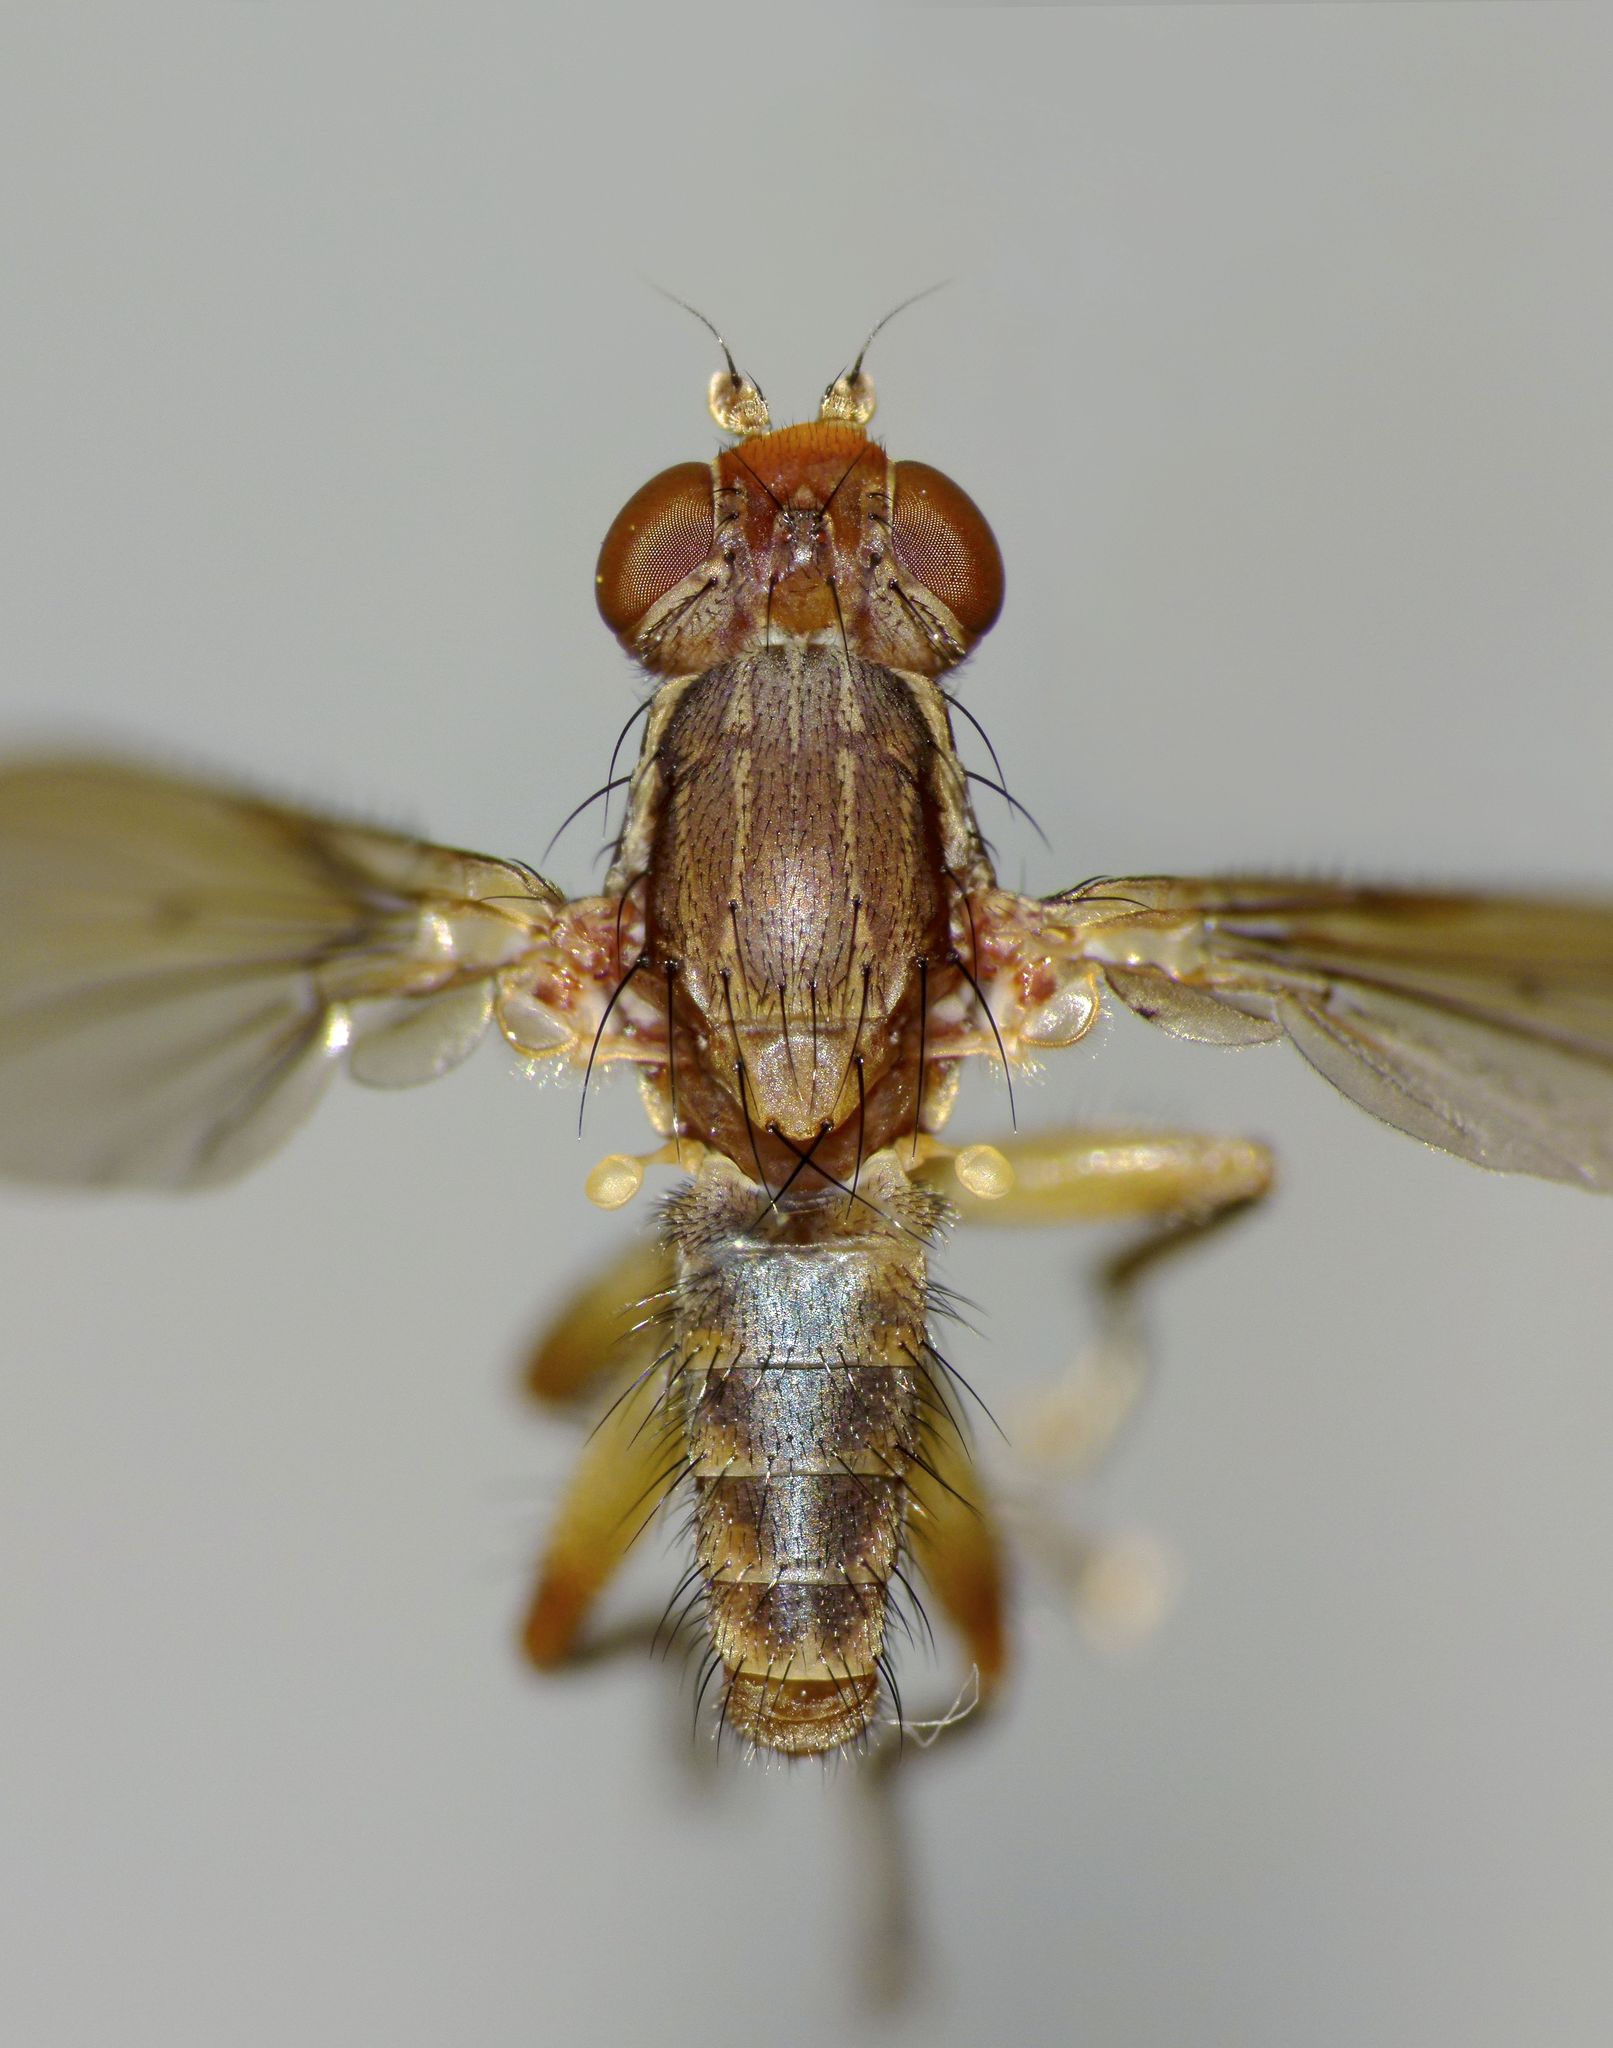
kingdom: Animalia
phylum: Arthropoda
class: Insecta
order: Diptera
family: Helosciomyzidae
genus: Napaeosciomyza
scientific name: Napaeosciomyza spinicosta
